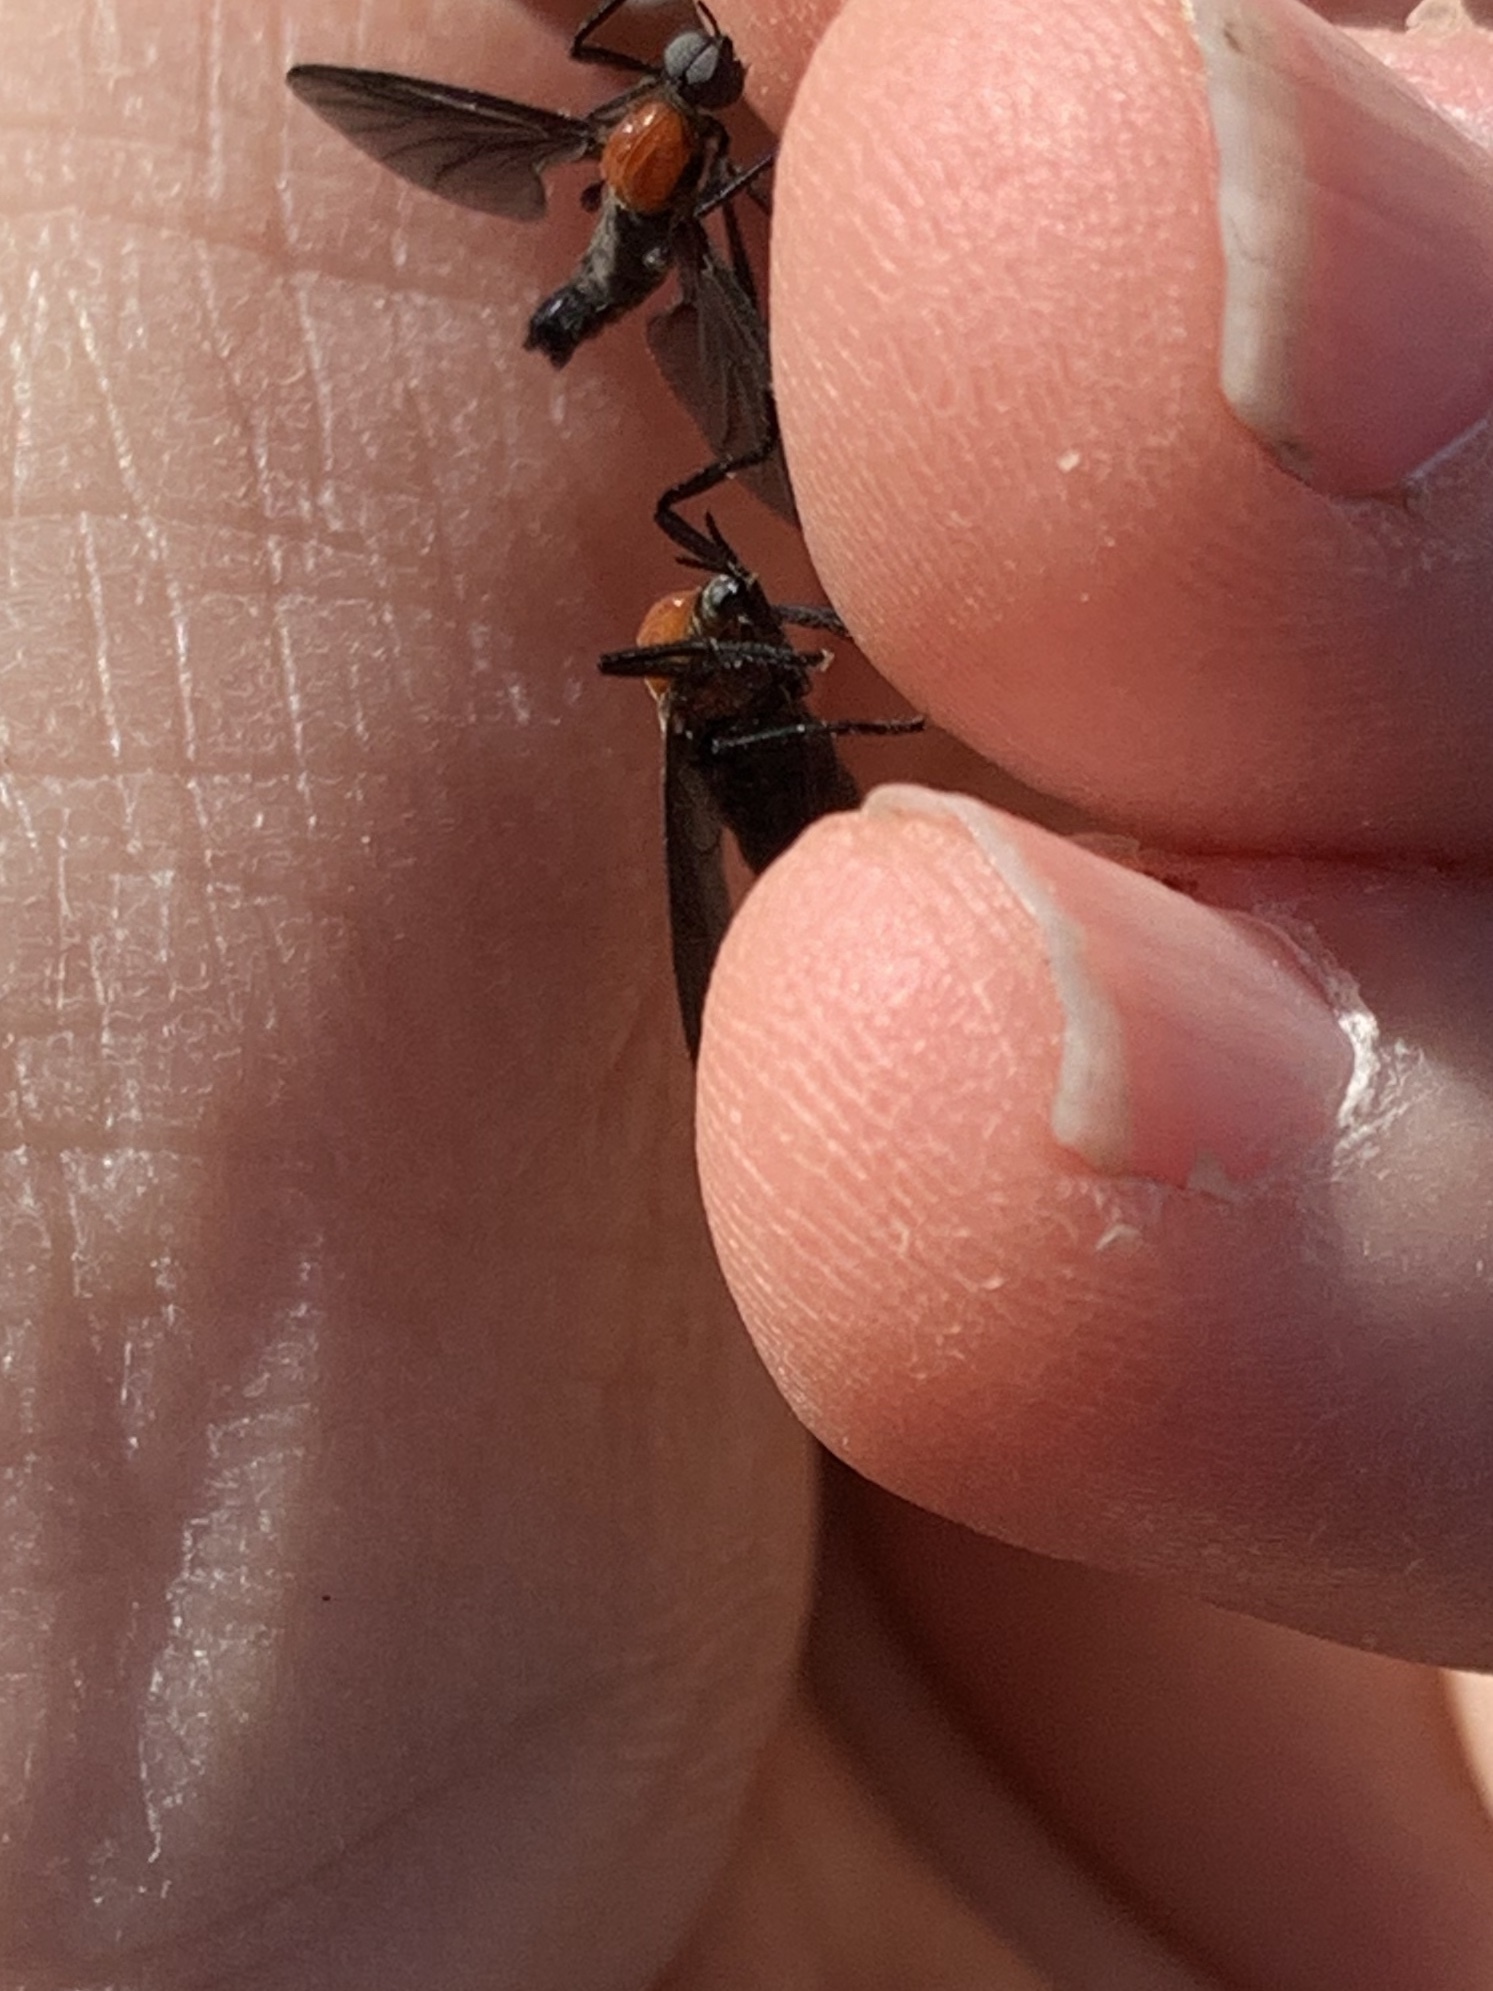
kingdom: Animalia
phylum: Arthropoda
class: Insecta
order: Diptera
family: Bibionidae
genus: Plecia
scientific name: Plecia nearctica
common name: March fly
